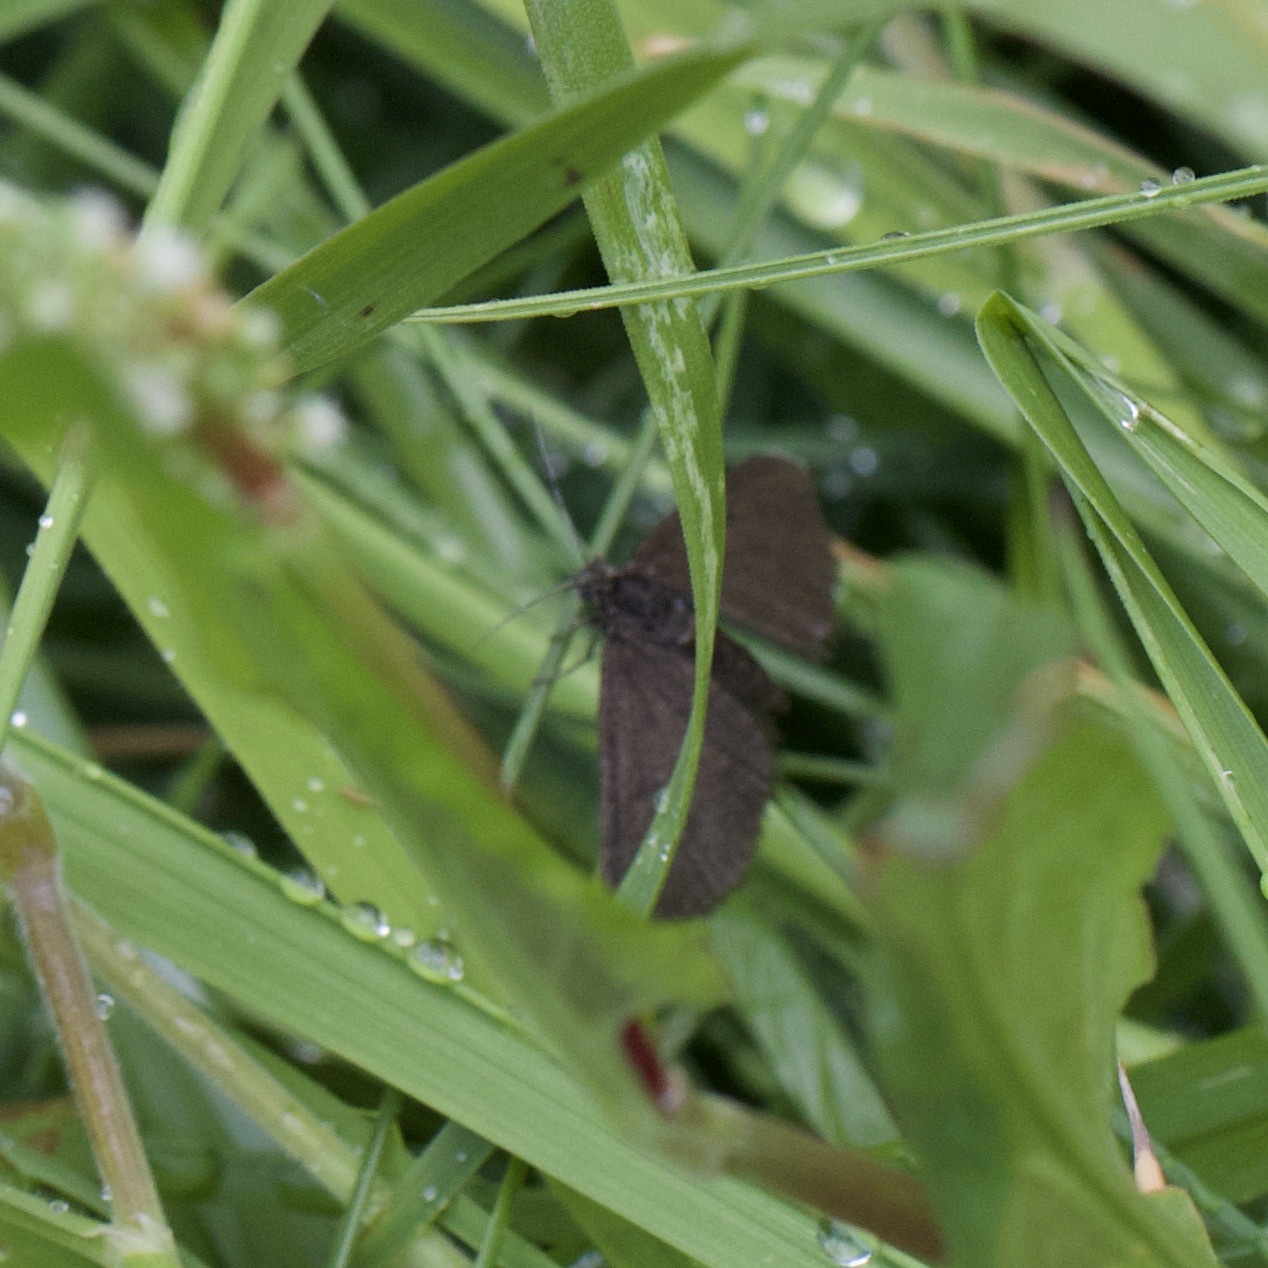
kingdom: Animalia
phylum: Arthropoda
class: Insecta
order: Lepidoptera
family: Geometridae
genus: Odezia
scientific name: Odezia atrata
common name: Chimney sweeper
